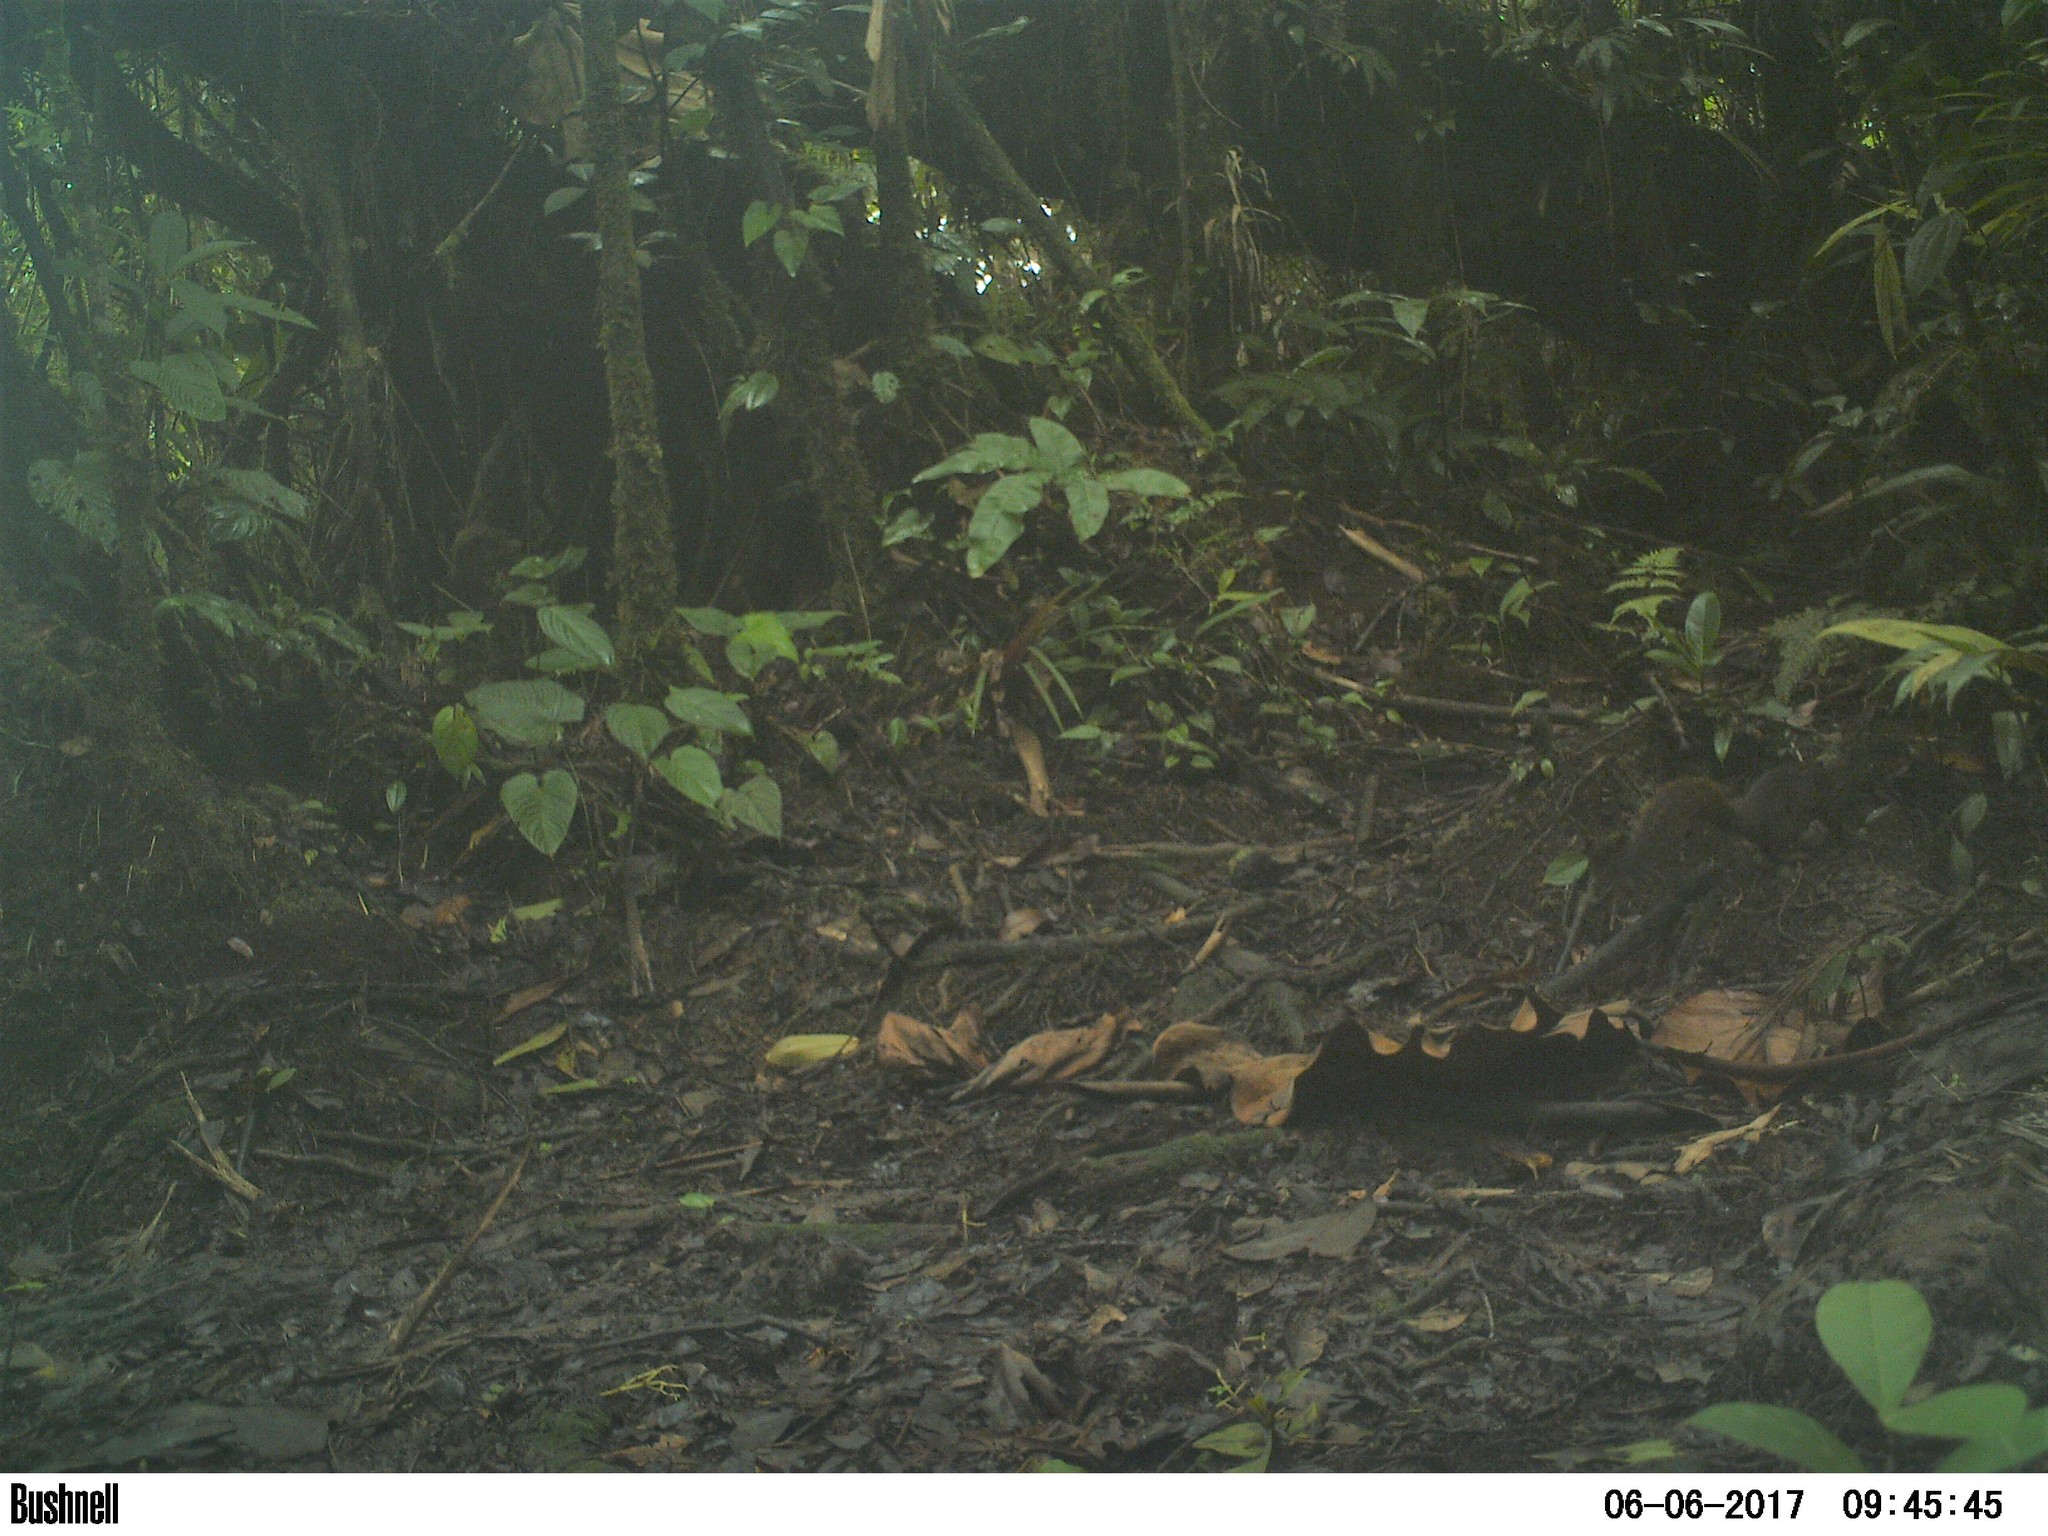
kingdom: Animalia
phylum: Chordata
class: Mammalia
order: Rodentia
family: Sciuridae
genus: Sciurus
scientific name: Sciurus granatensis
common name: Red-tailed squirrel
